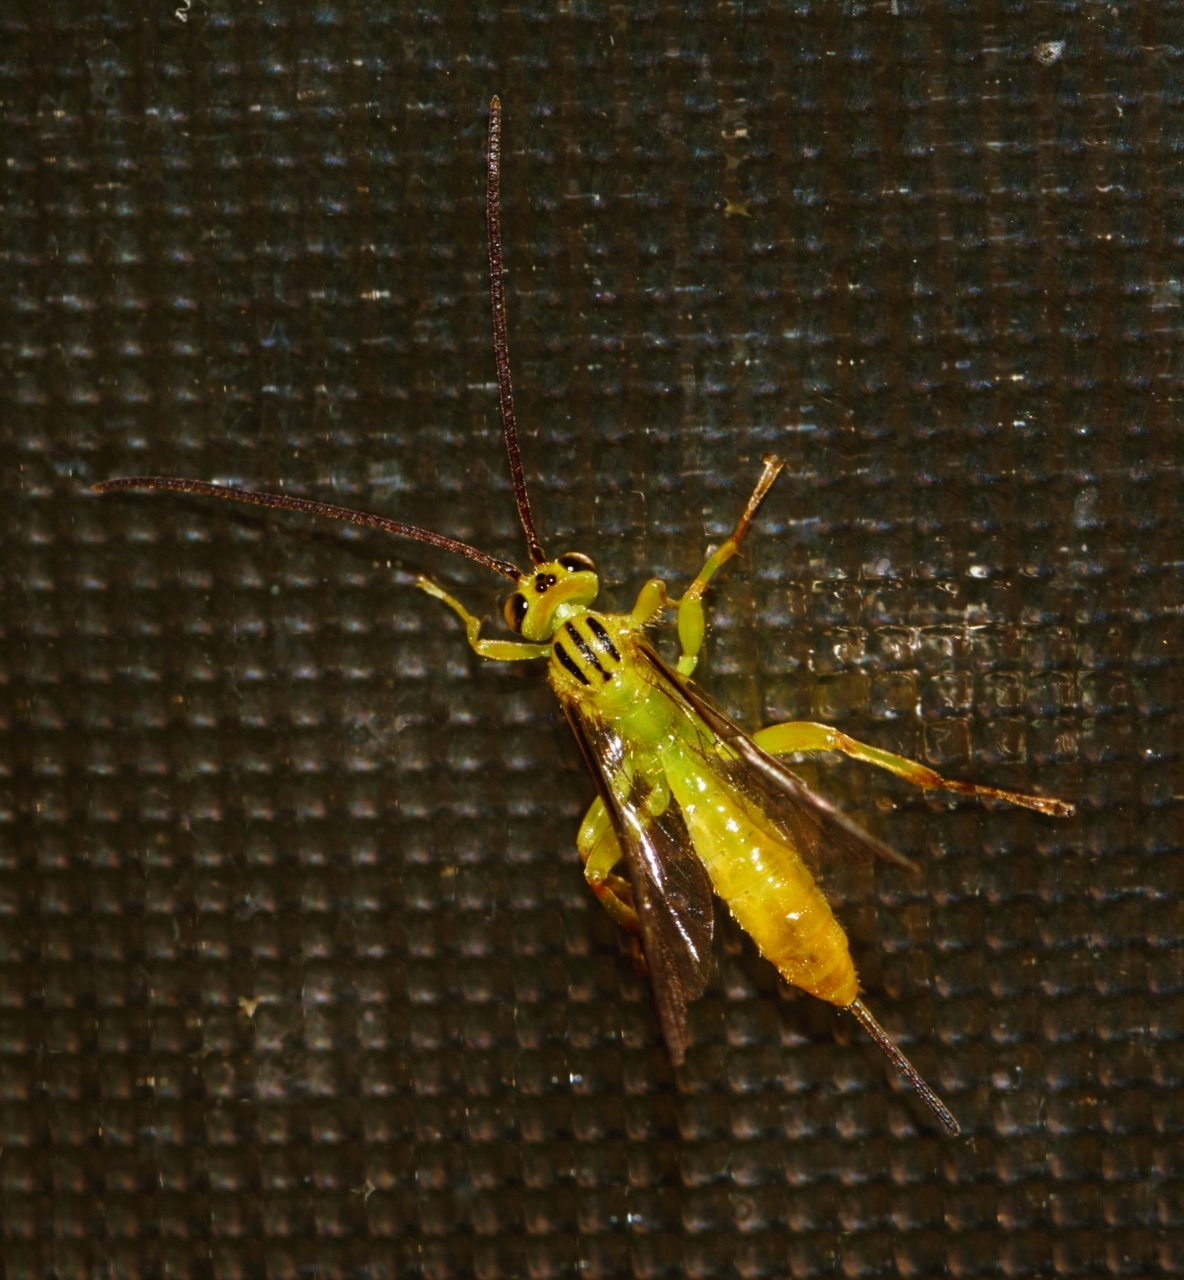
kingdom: Animalia
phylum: Arthropoda
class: Insecta
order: Hymenoptera
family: Ichneumonidae
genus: Theronia
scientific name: Theronia lurida
